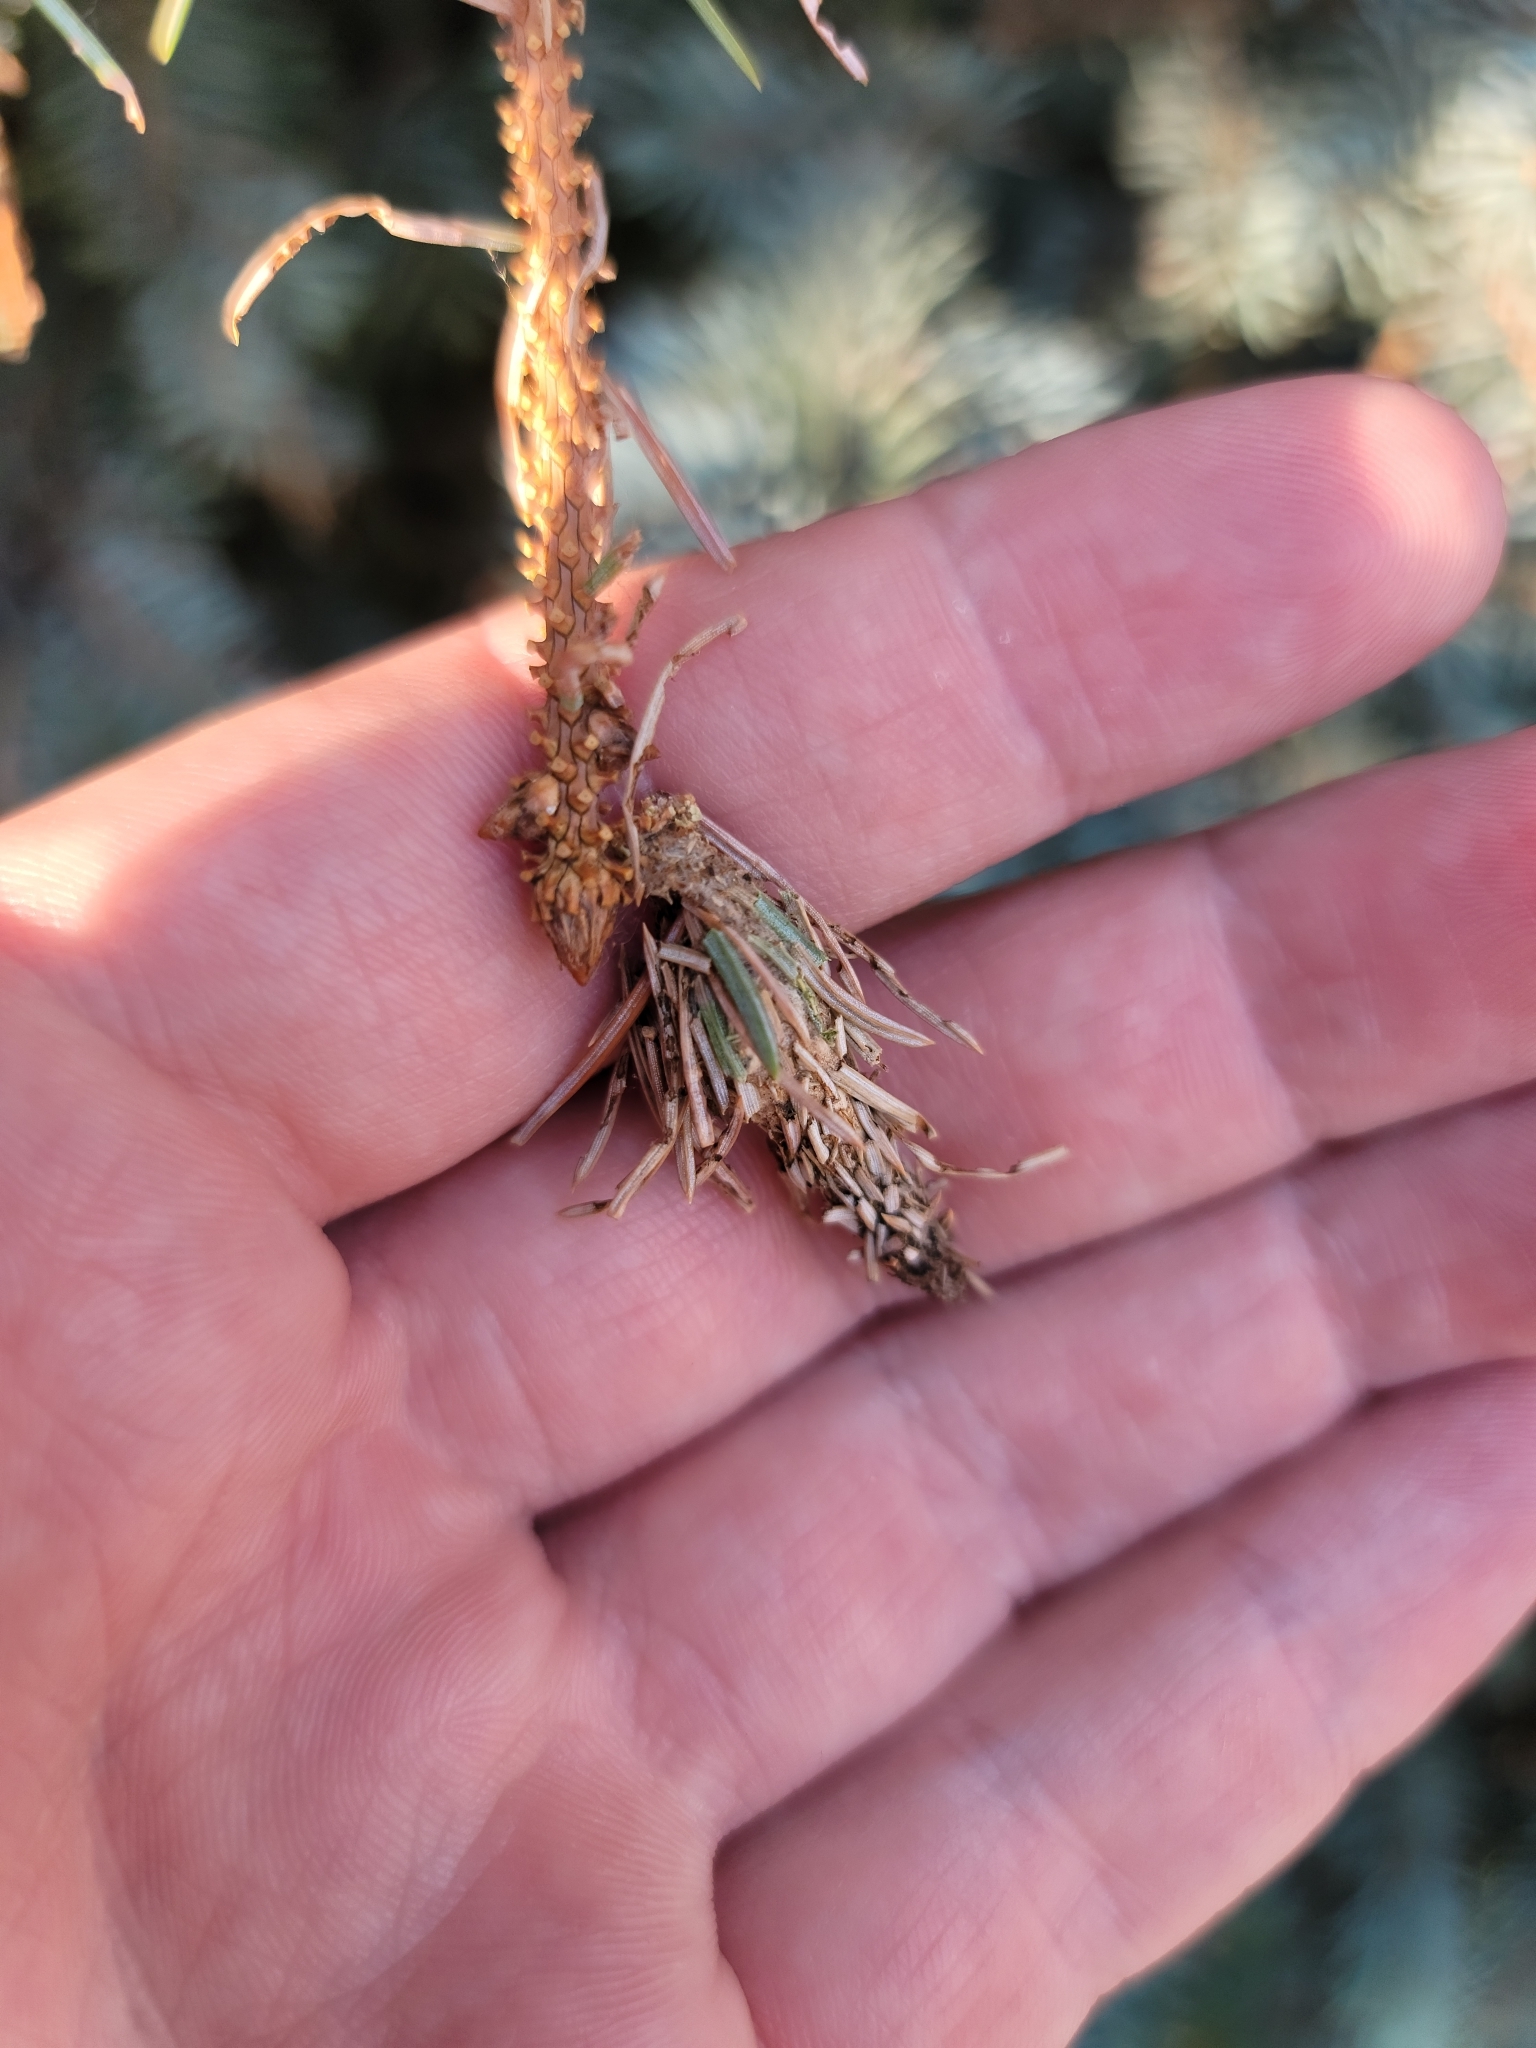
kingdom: Animalia
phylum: Arthropoda
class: Insecta
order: Lepidoptera
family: Psychidae
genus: Thyridopteryx
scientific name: Thyridopteryx ephemeraeformis
